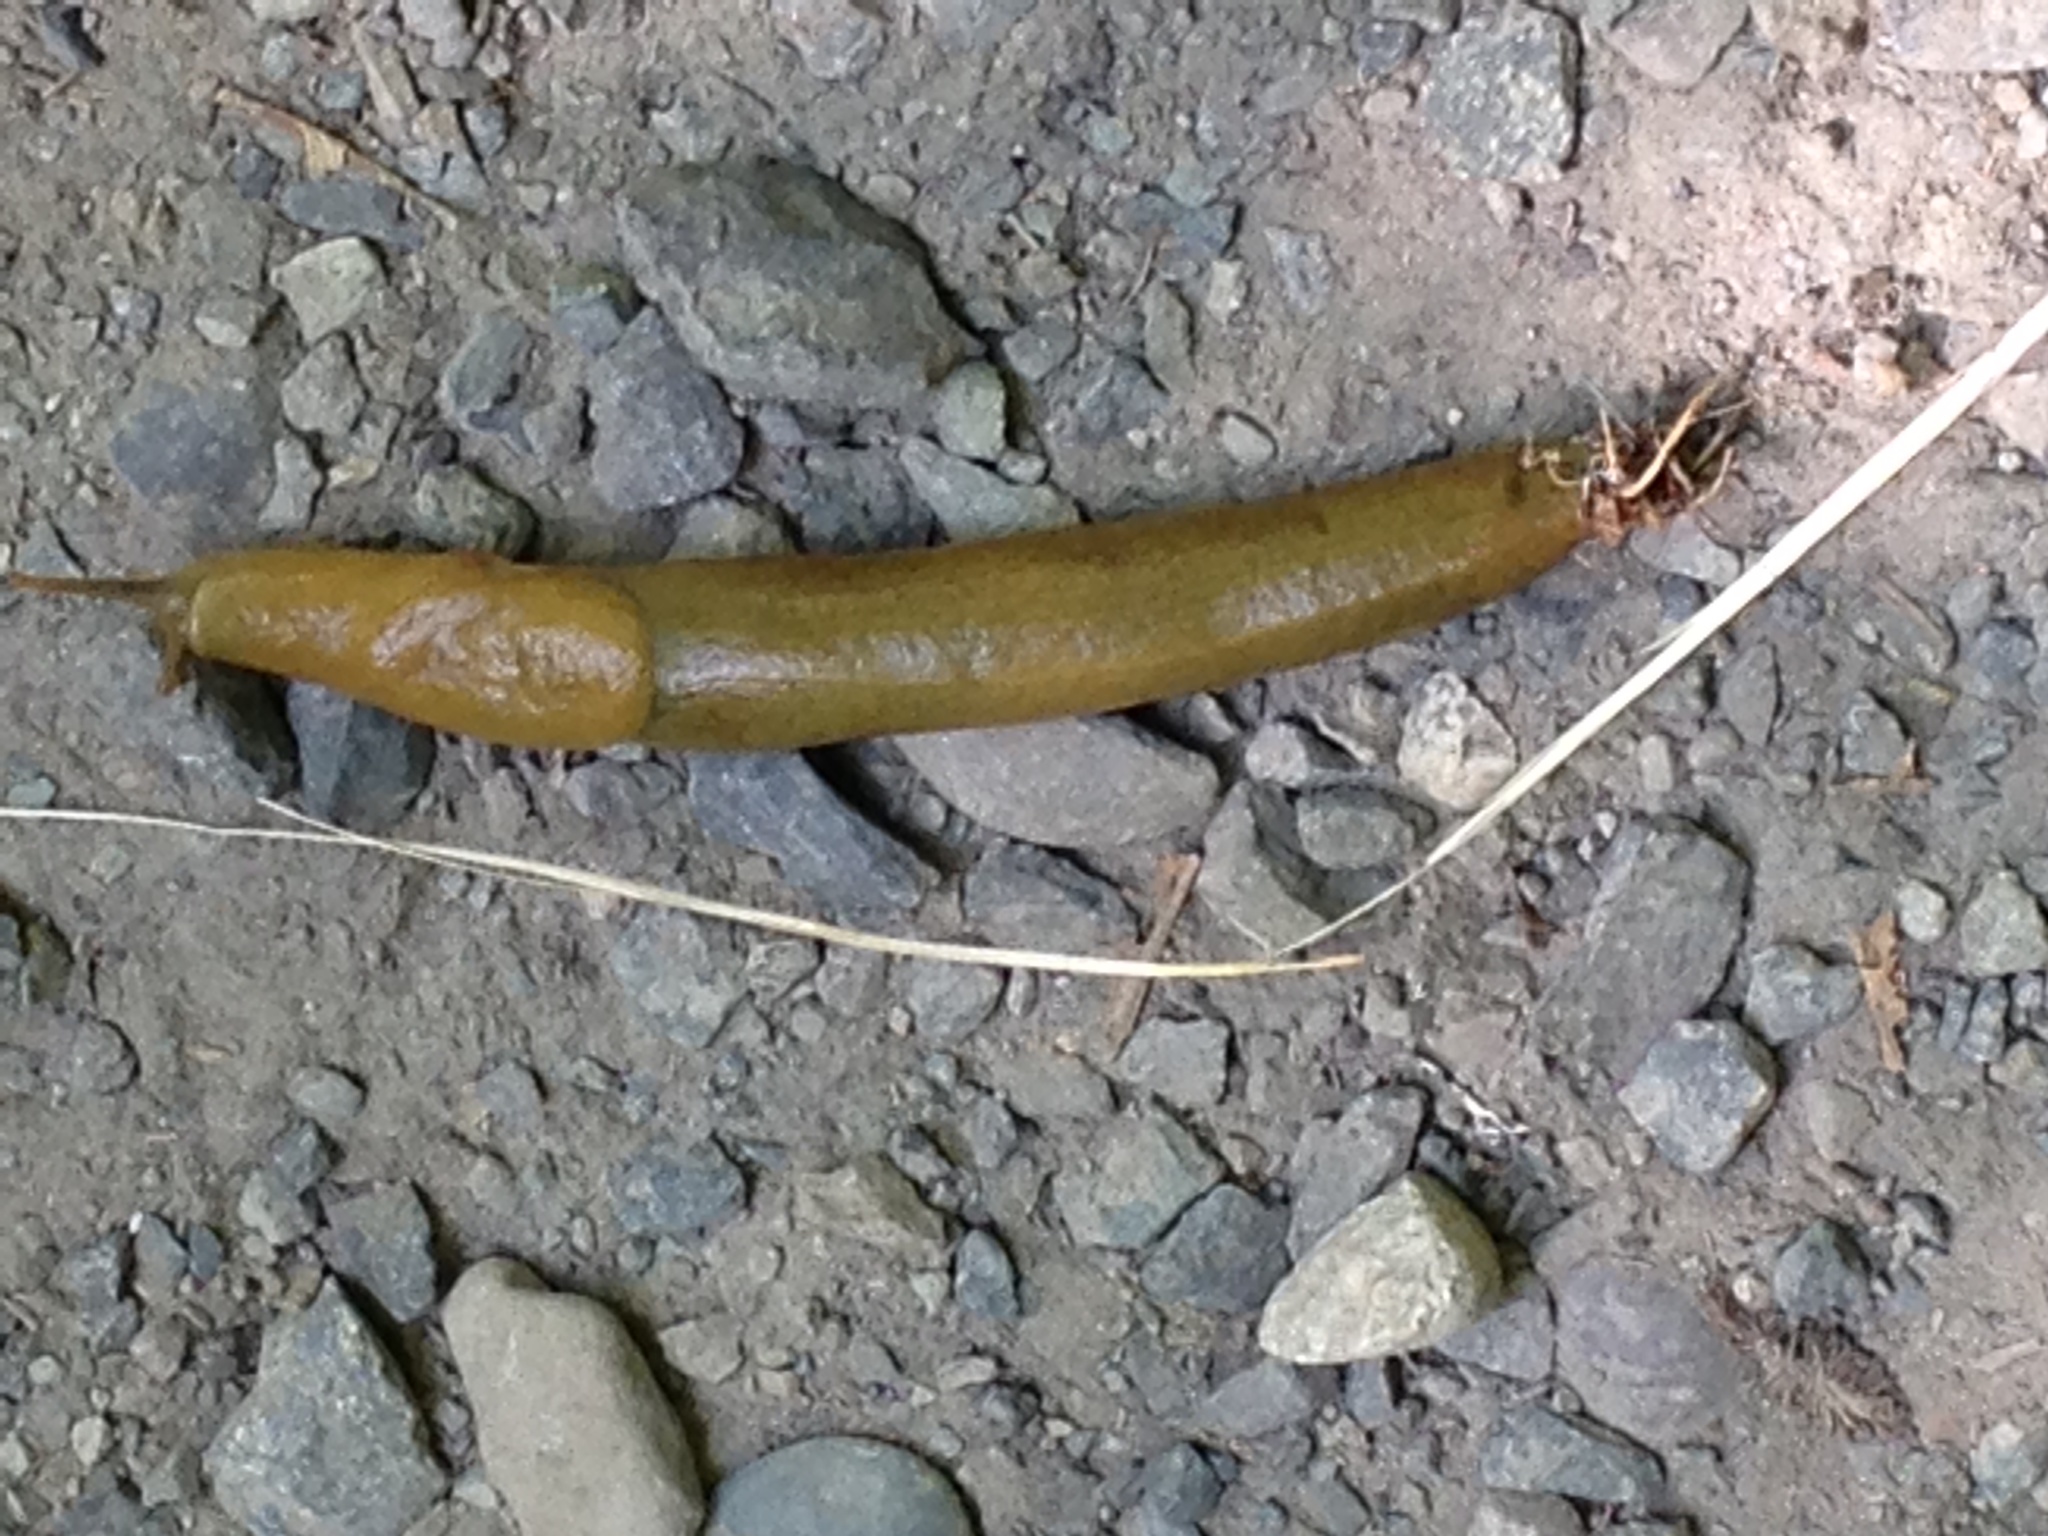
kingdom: Animalia
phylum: Mollusca
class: Gastropoda
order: Stylommatophora
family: Ariolimacidae
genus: Ariolimax
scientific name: Ariolimax columbianus
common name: Pacific banana slug
